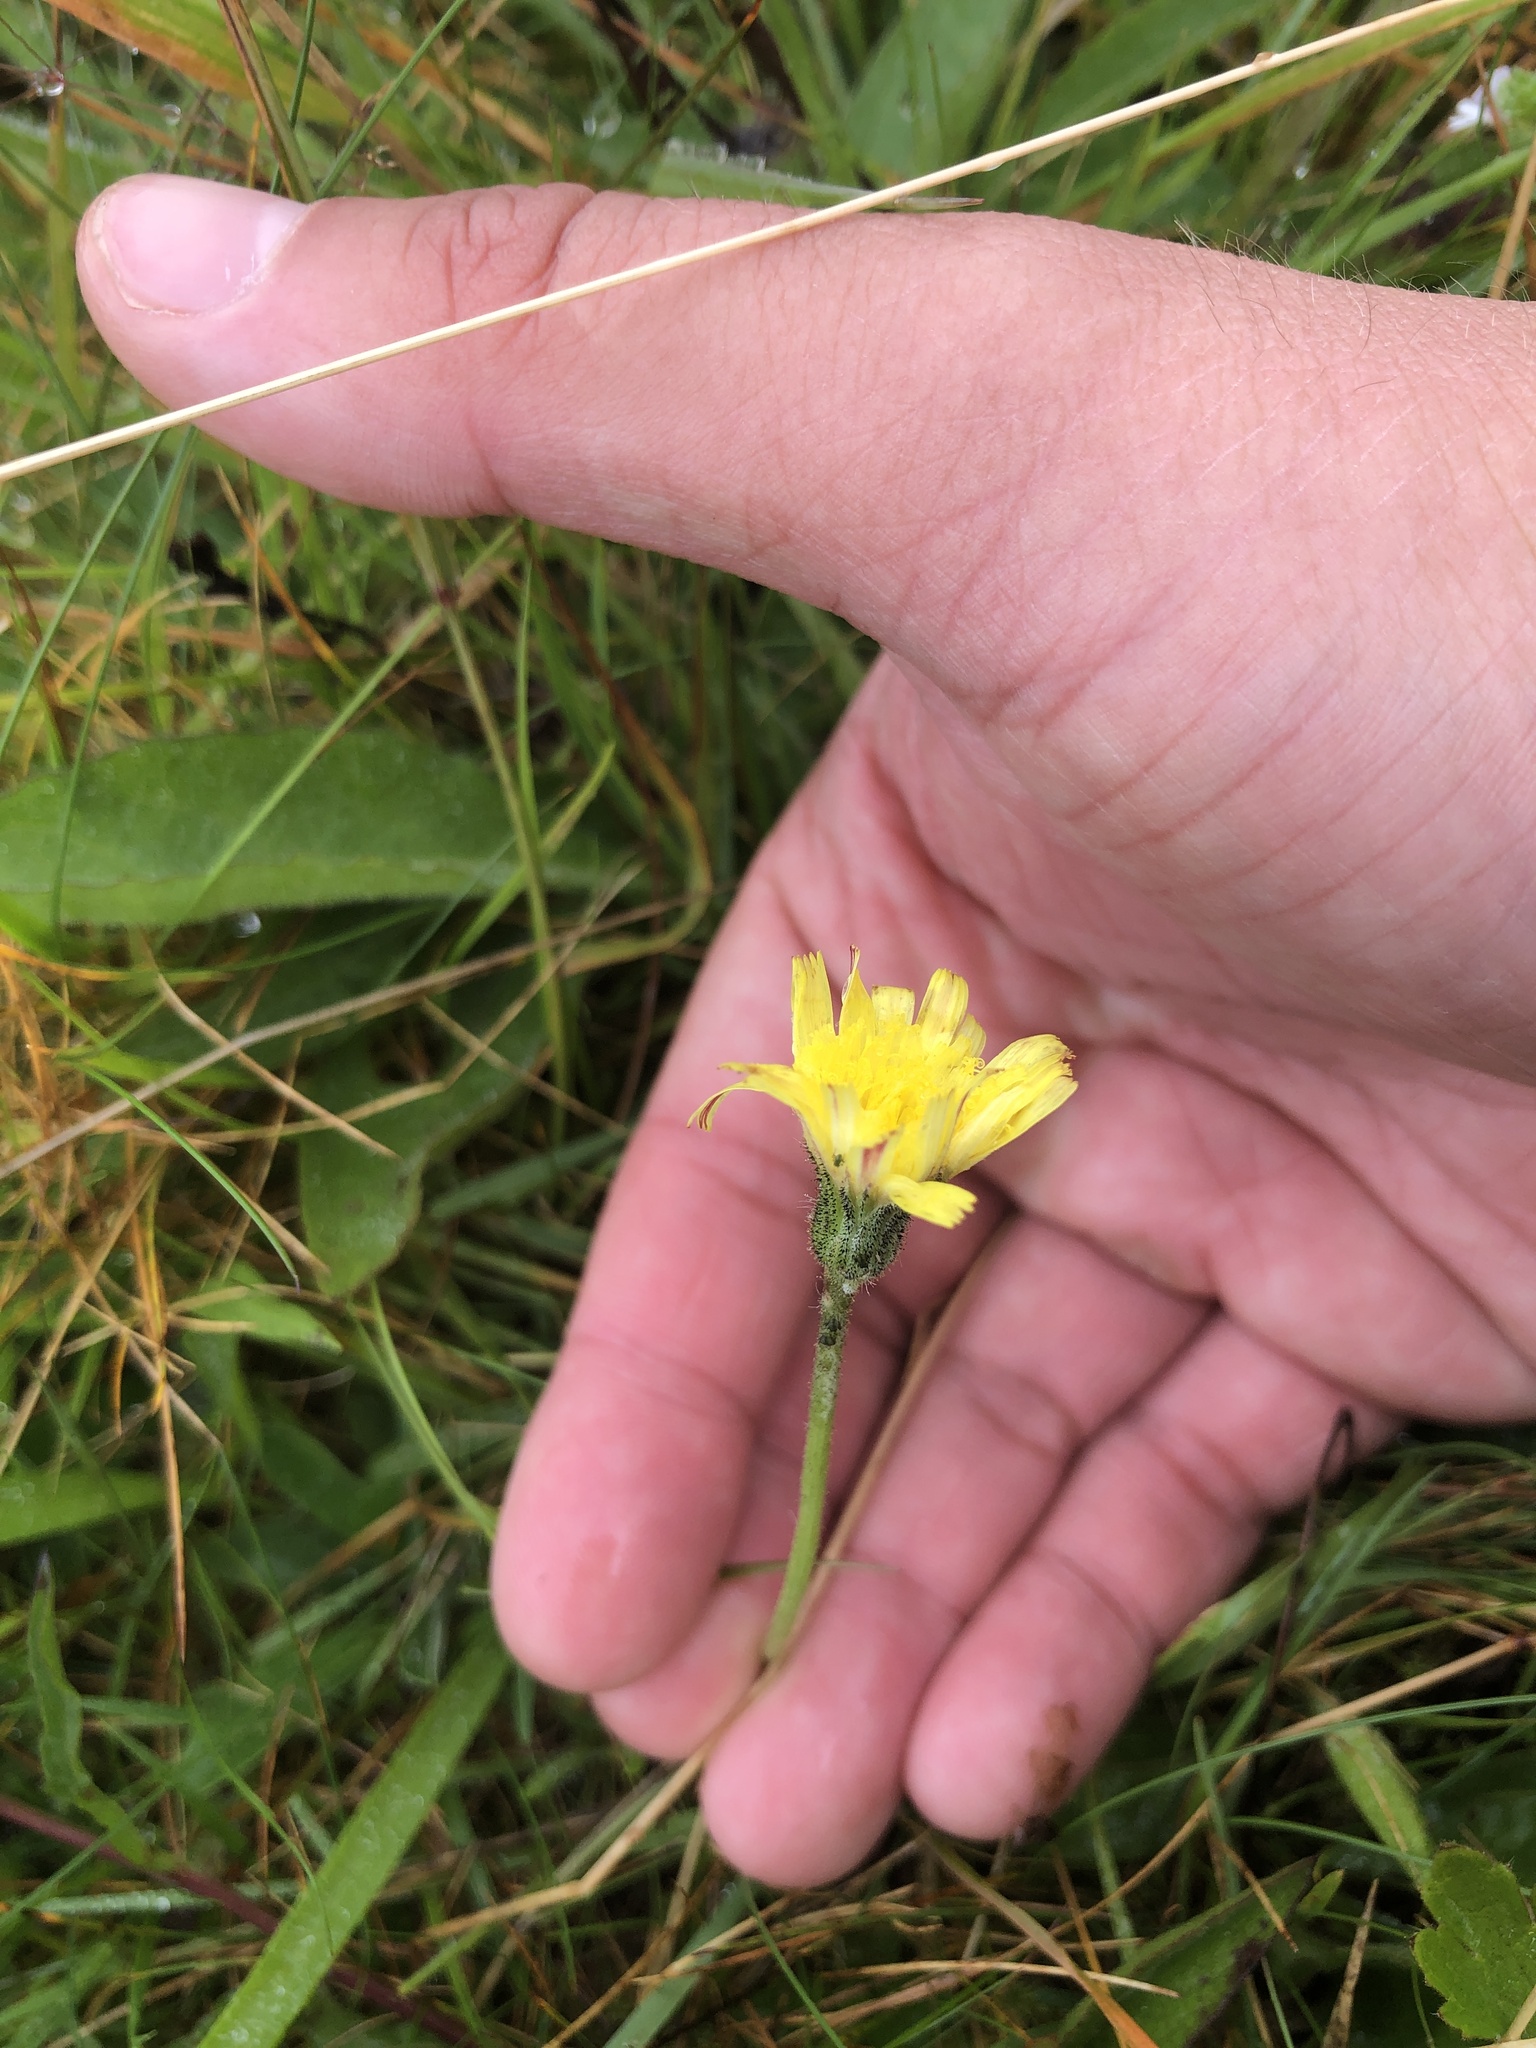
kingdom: Plantae
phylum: Tracheophyta
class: Magnoliopsida
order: Asterales
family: Asteraceae
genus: Hypochaeris
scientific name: Hypochaeris radicata
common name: Flatweed
